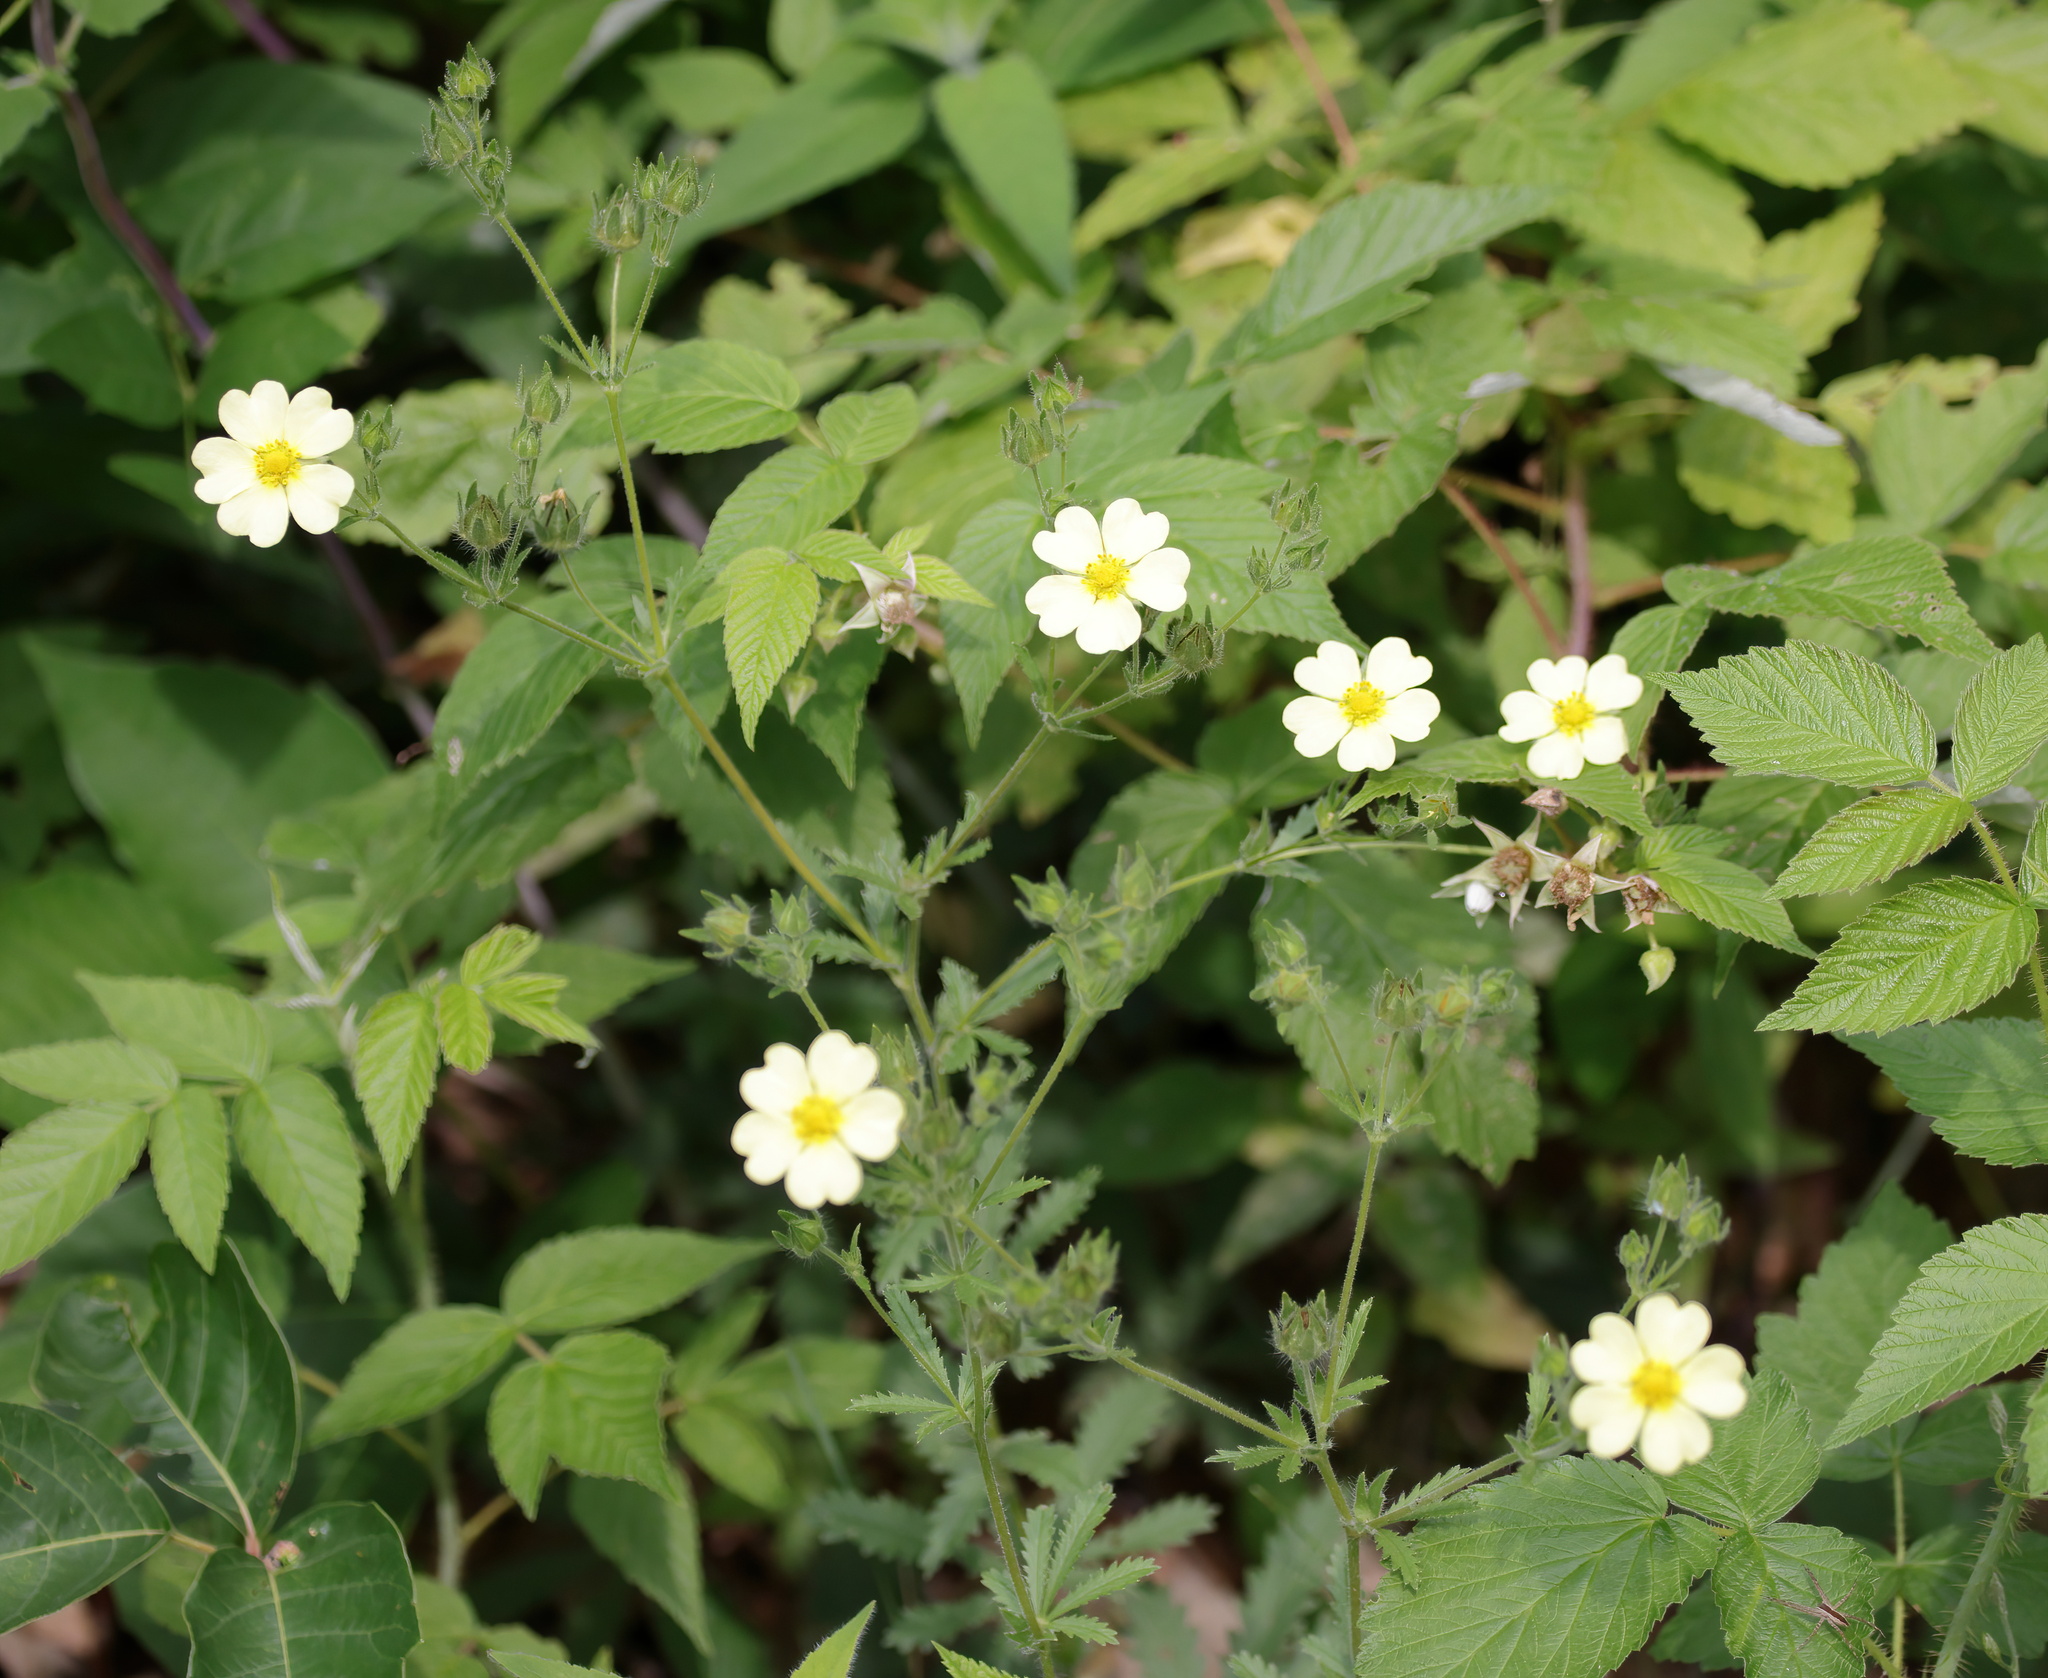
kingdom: Plantae
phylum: Tracheophyta
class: Magnoliopsida
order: Rosales
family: Rosaceae
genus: Potentilla
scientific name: Potentilla recta
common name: Sulphur cinquefoil
